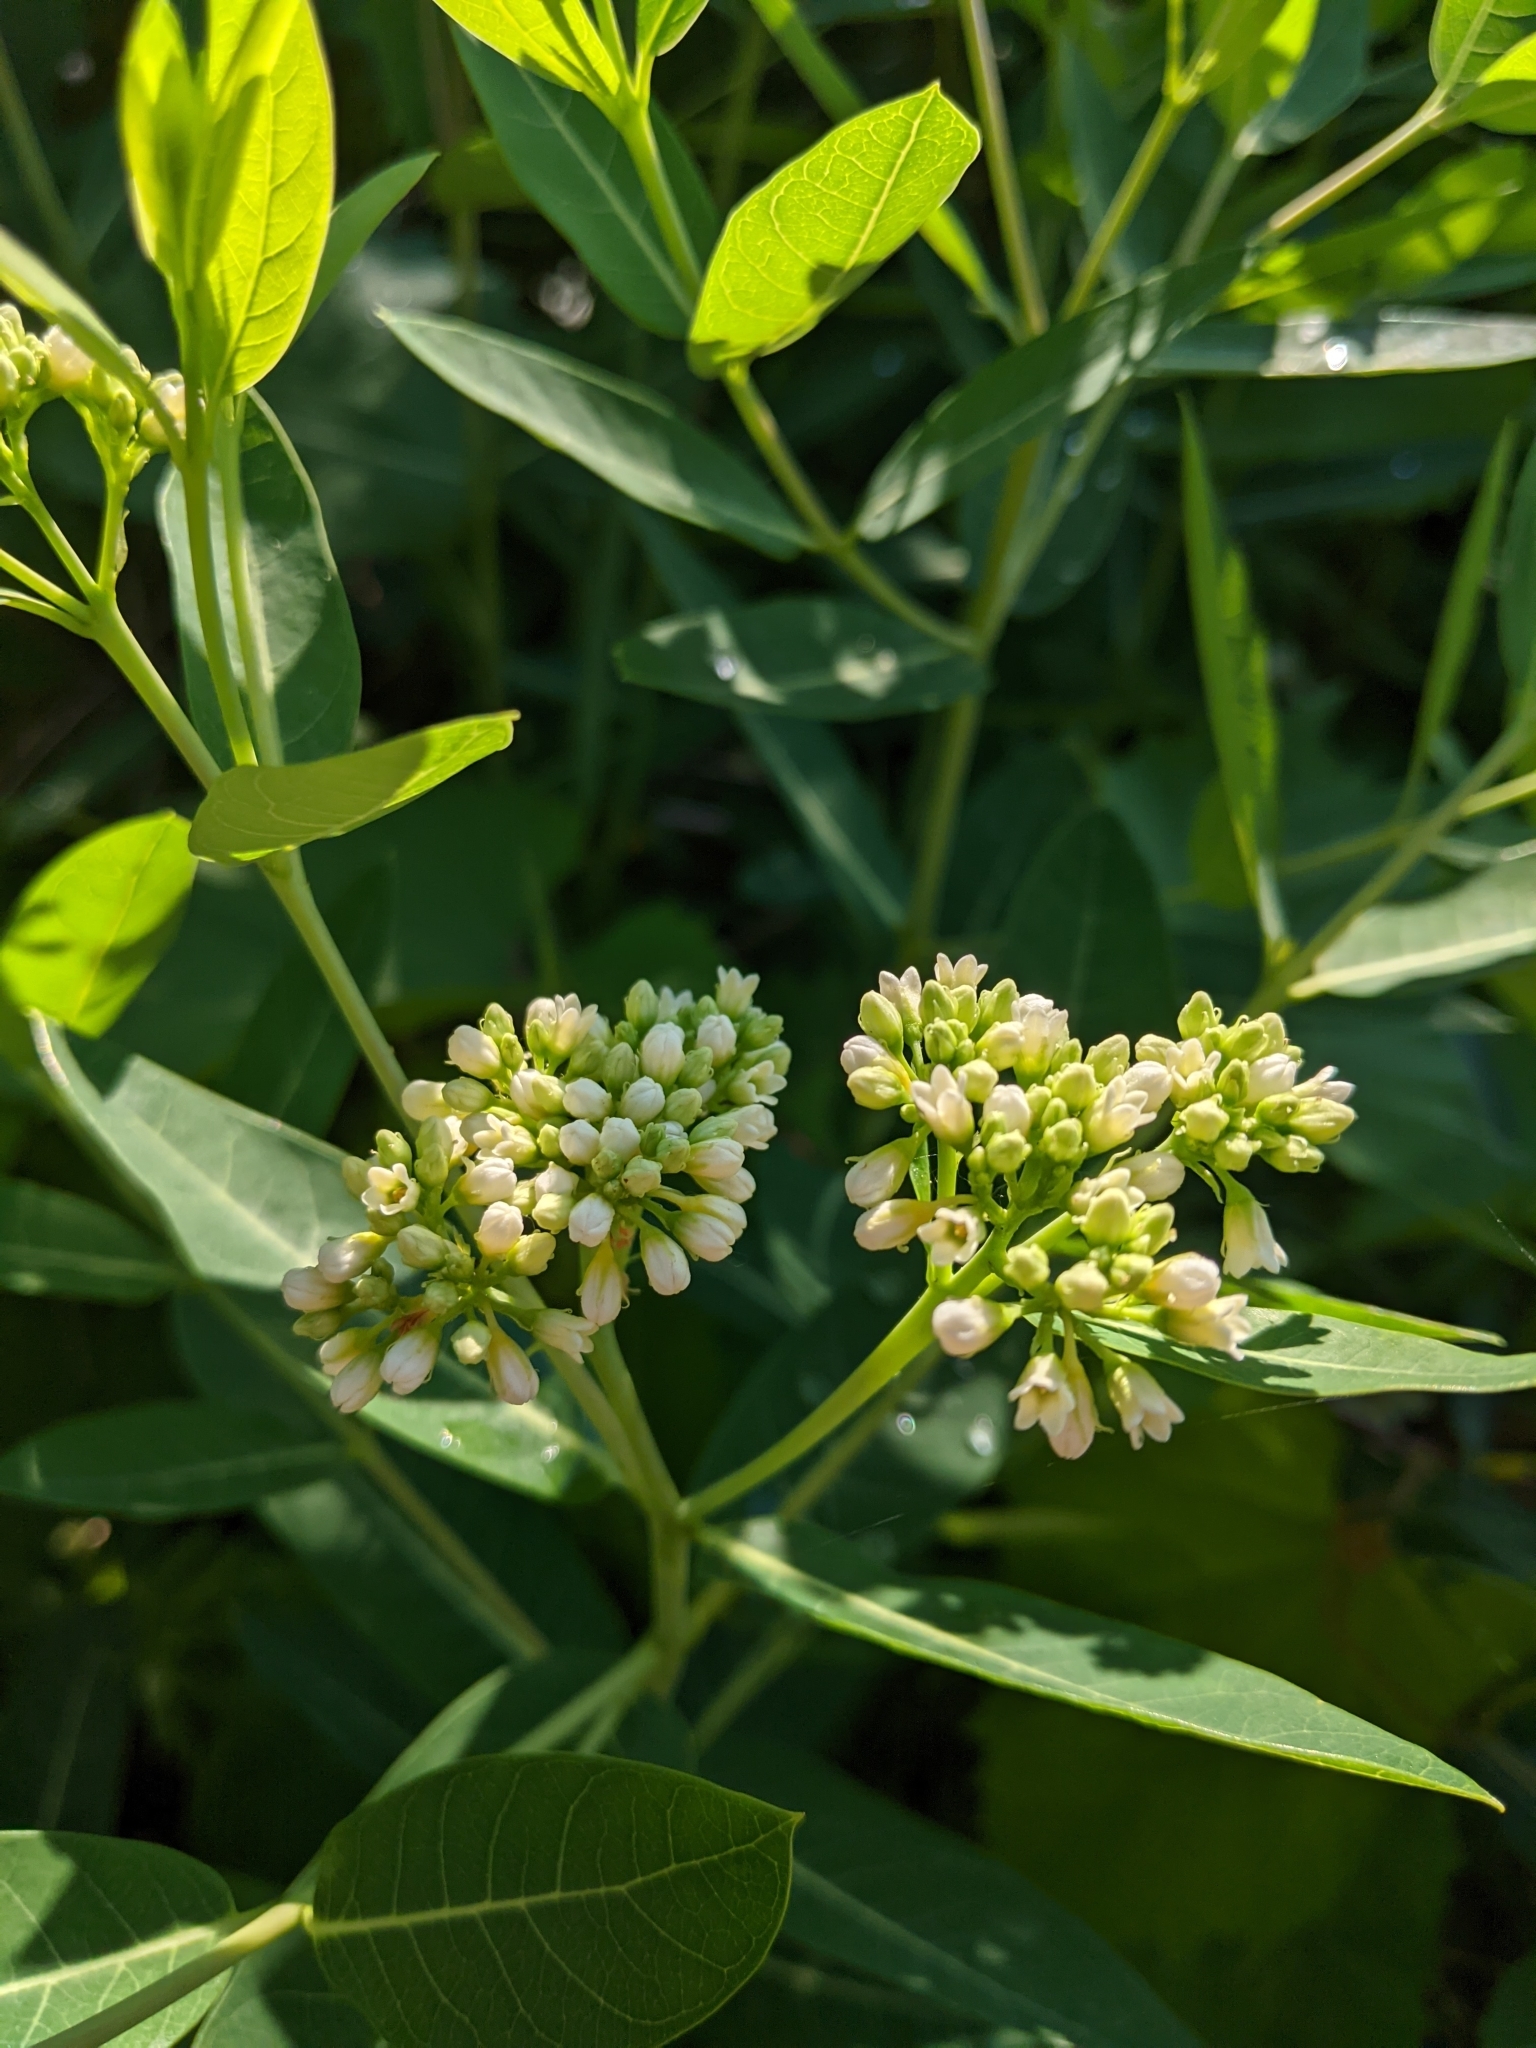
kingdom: Plantae
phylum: Tracheophyta
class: Magnoliopsida
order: Gentianales
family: Apocynaceae
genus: Apocynum
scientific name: Apocynum cannabinum
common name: Hemp dogbane
